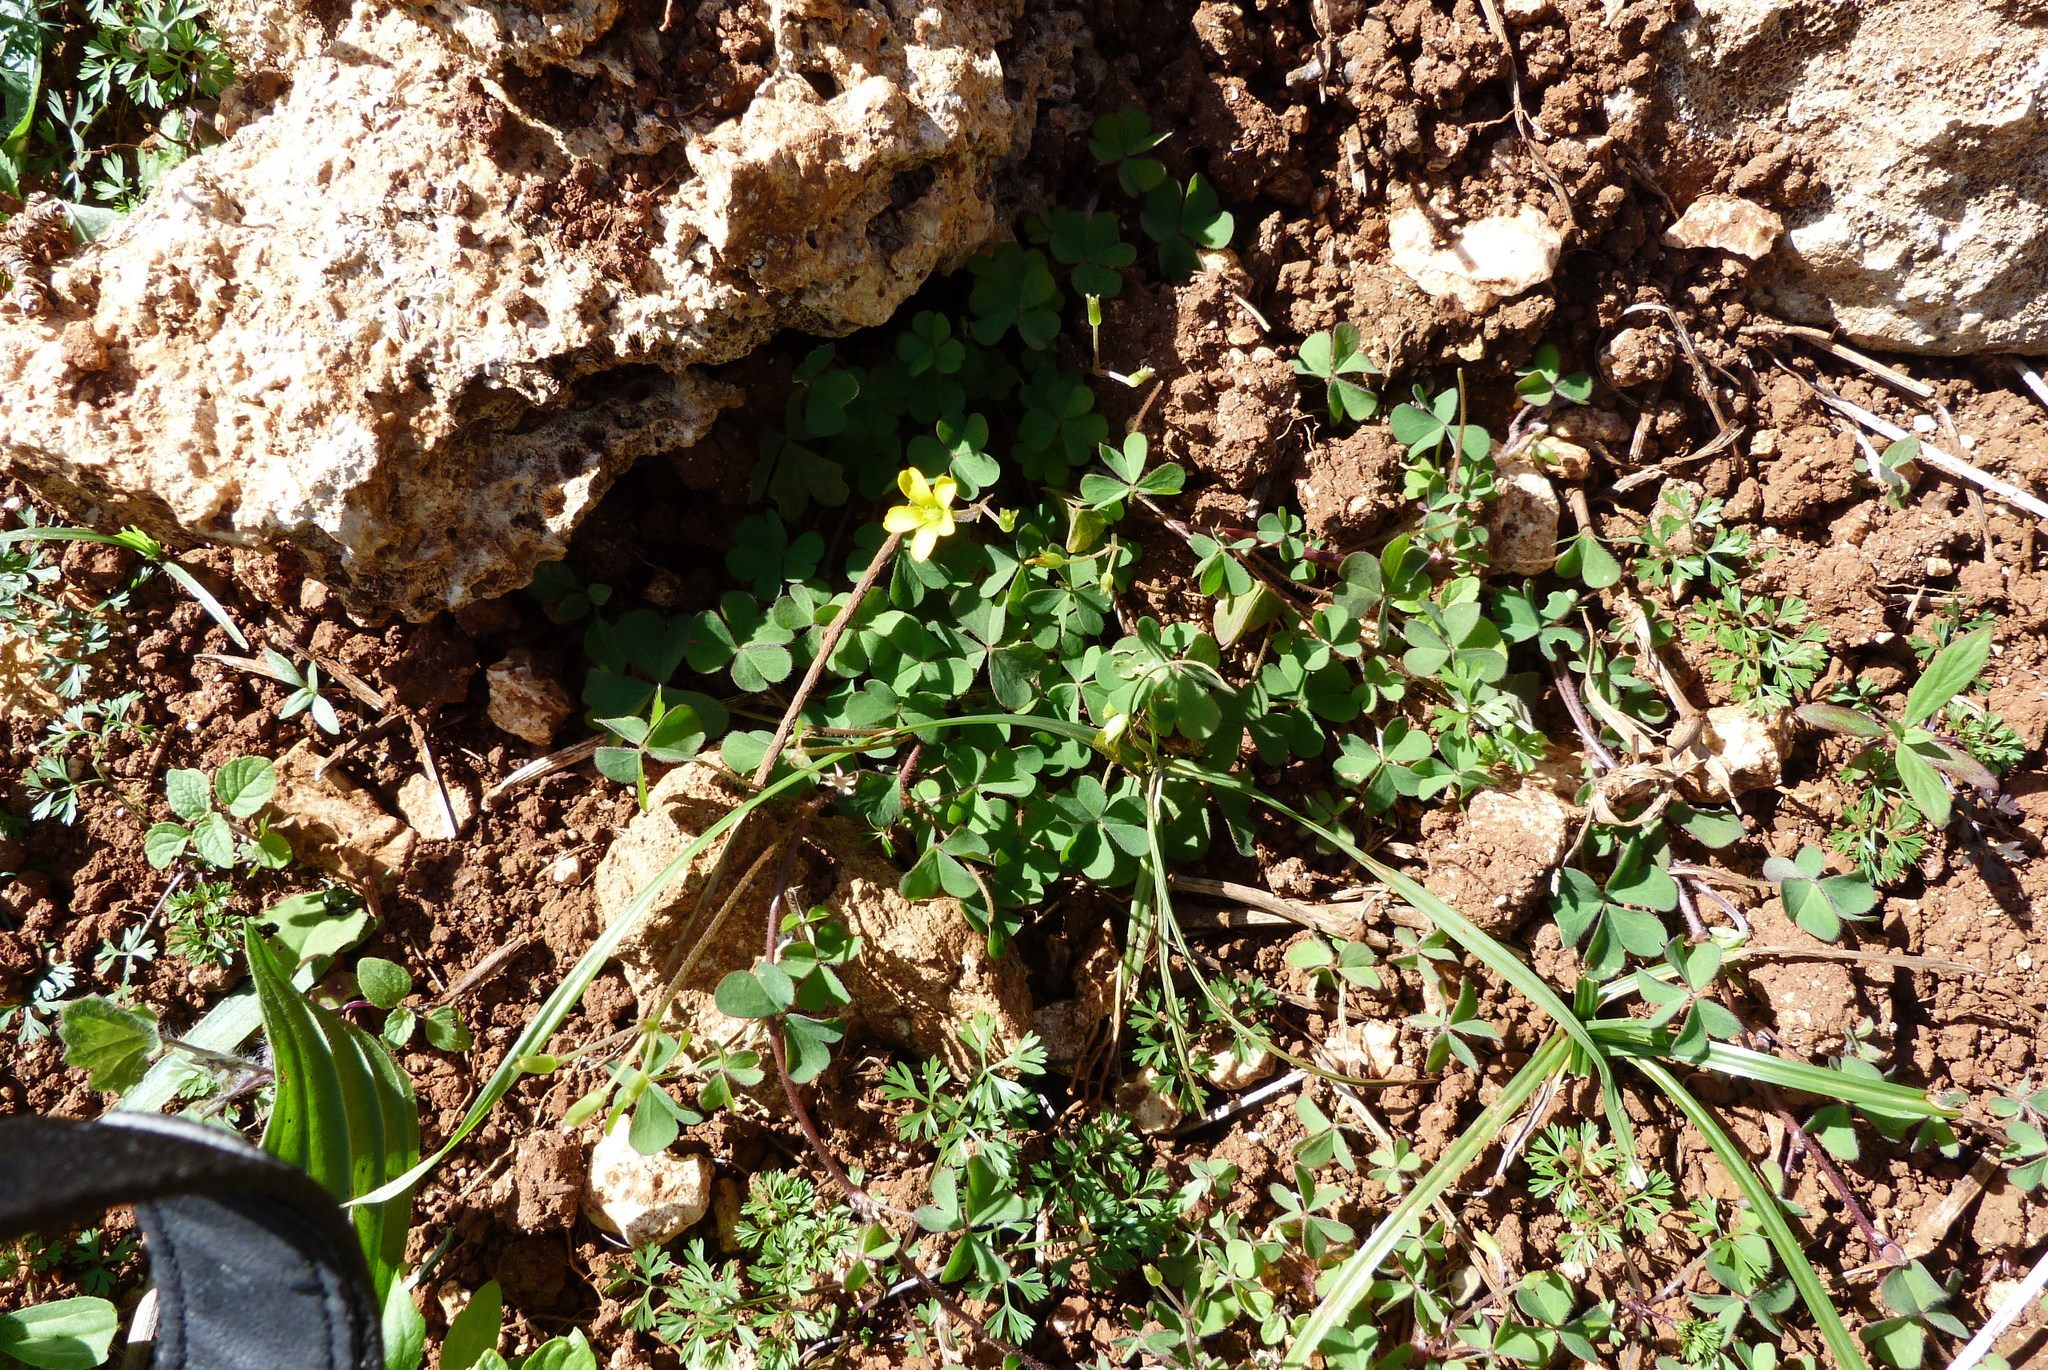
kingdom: Plantae
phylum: Tracheophyta
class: Magnoliopsida
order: Oxalidales
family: Oxalidaceae
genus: Oxalis
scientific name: Oxalis corniculata
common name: Procumbent yellow-sorrel
